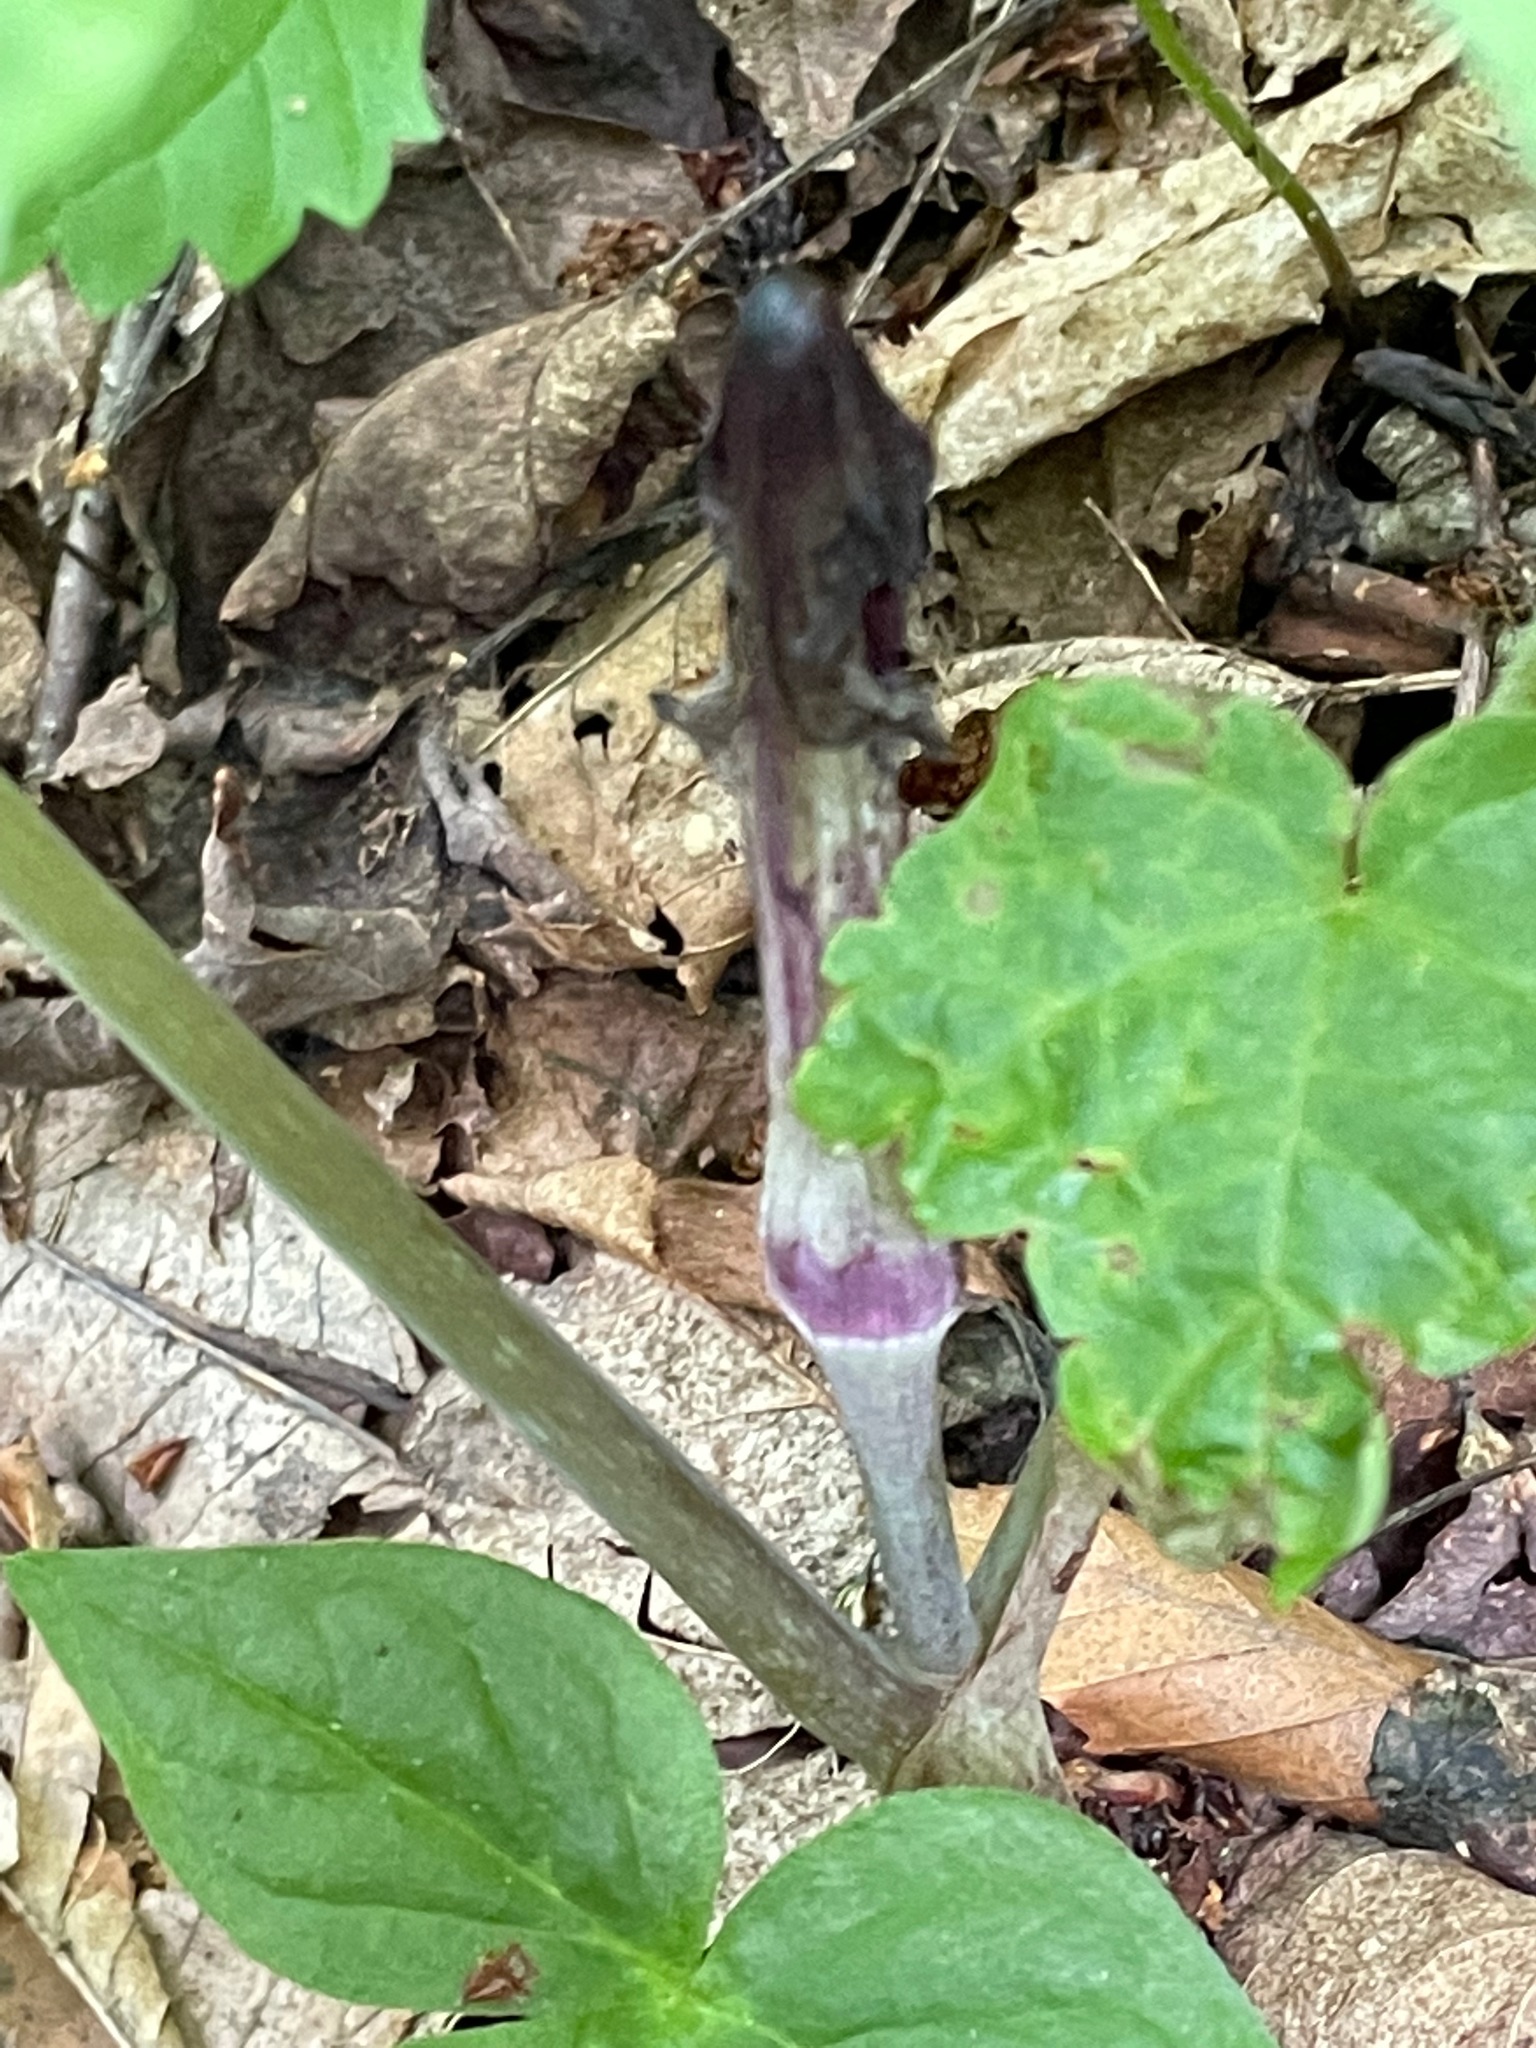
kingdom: Plantae
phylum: Tracheophyta
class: Liliopsida
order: Alismatales
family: Araceae
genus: Arisaema
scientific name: Arisaema triphyllum
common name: Jack-in-the-pulpit
